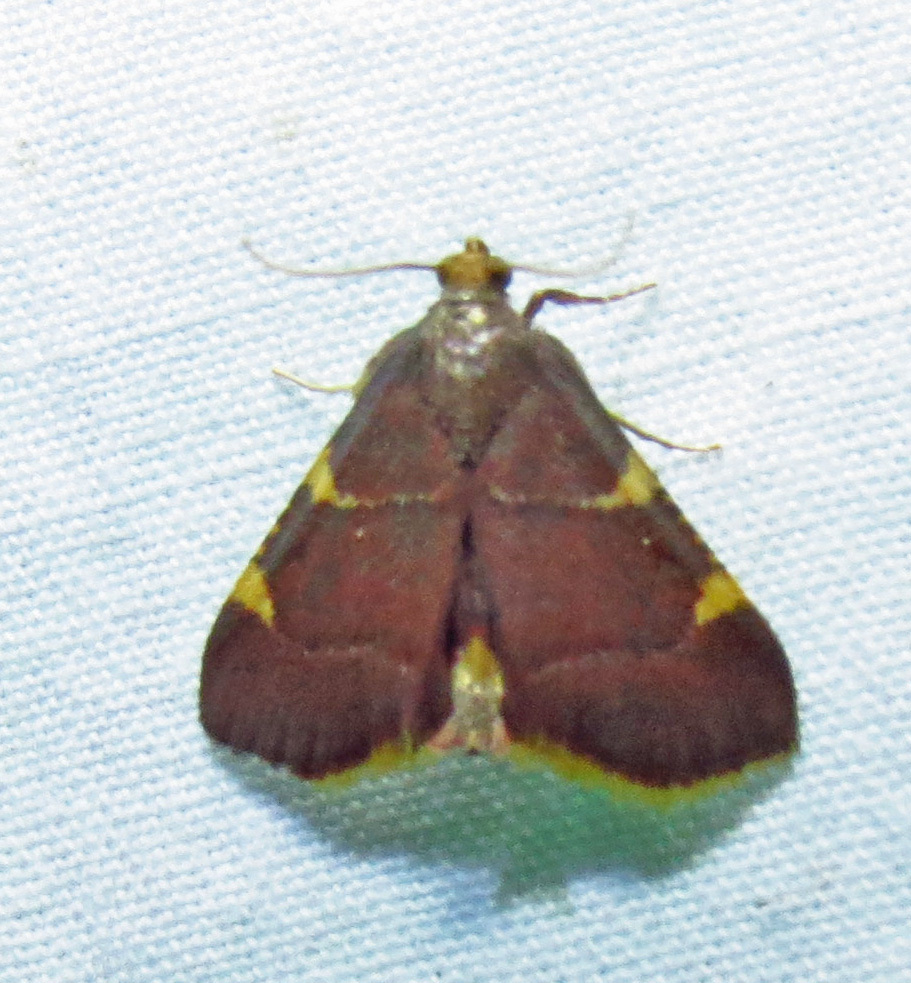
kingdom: Animalia
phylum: Arthropoda
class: Insecta
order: Lepidoptera
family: Pyralidae
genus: Hypsopygia
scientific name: Hypsopygia olinalis
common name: Yellow-fringed dolichomia moth
